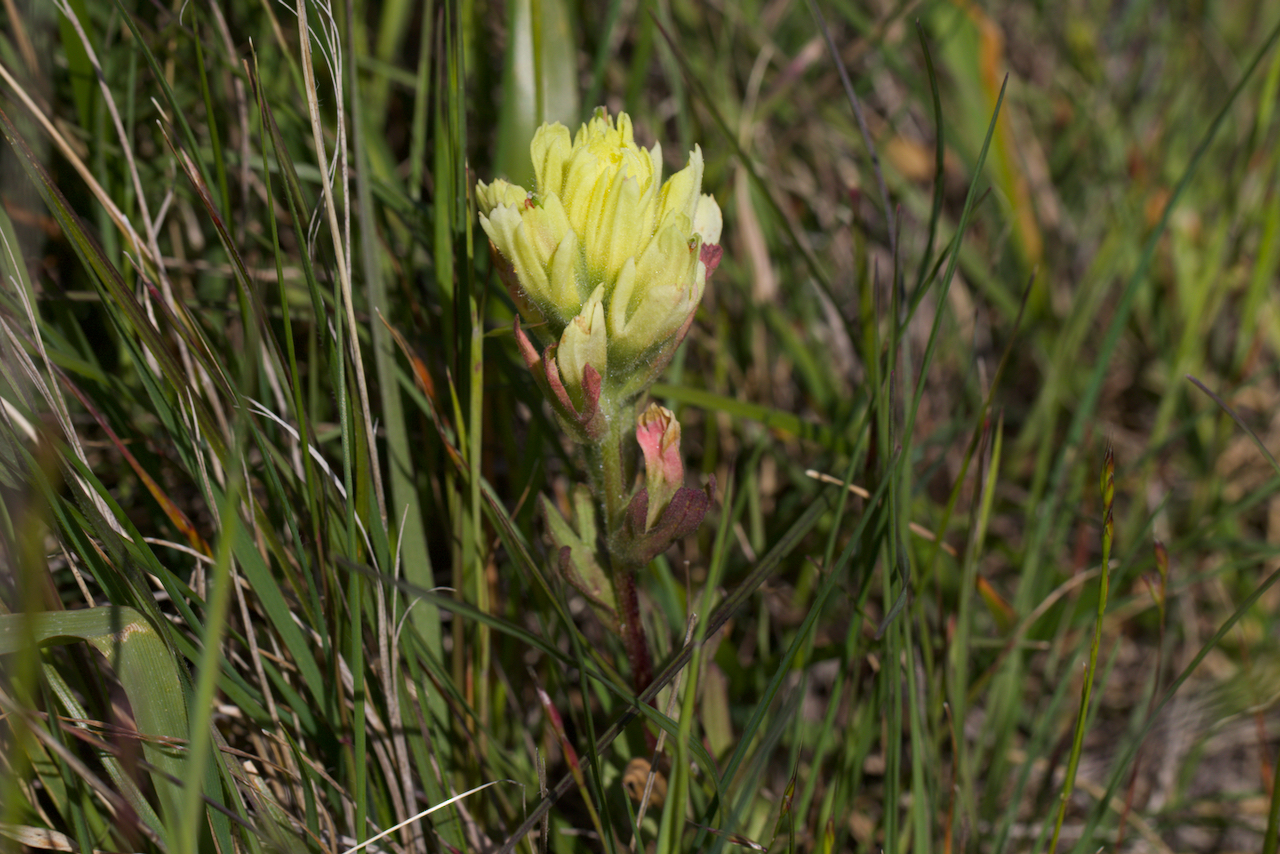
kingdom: Plantae
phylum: Tracheophyta
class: Magnoliopsida
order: Lamiales
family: Orobanchaceae
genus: Castilleja
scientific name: Castilleja affinis
